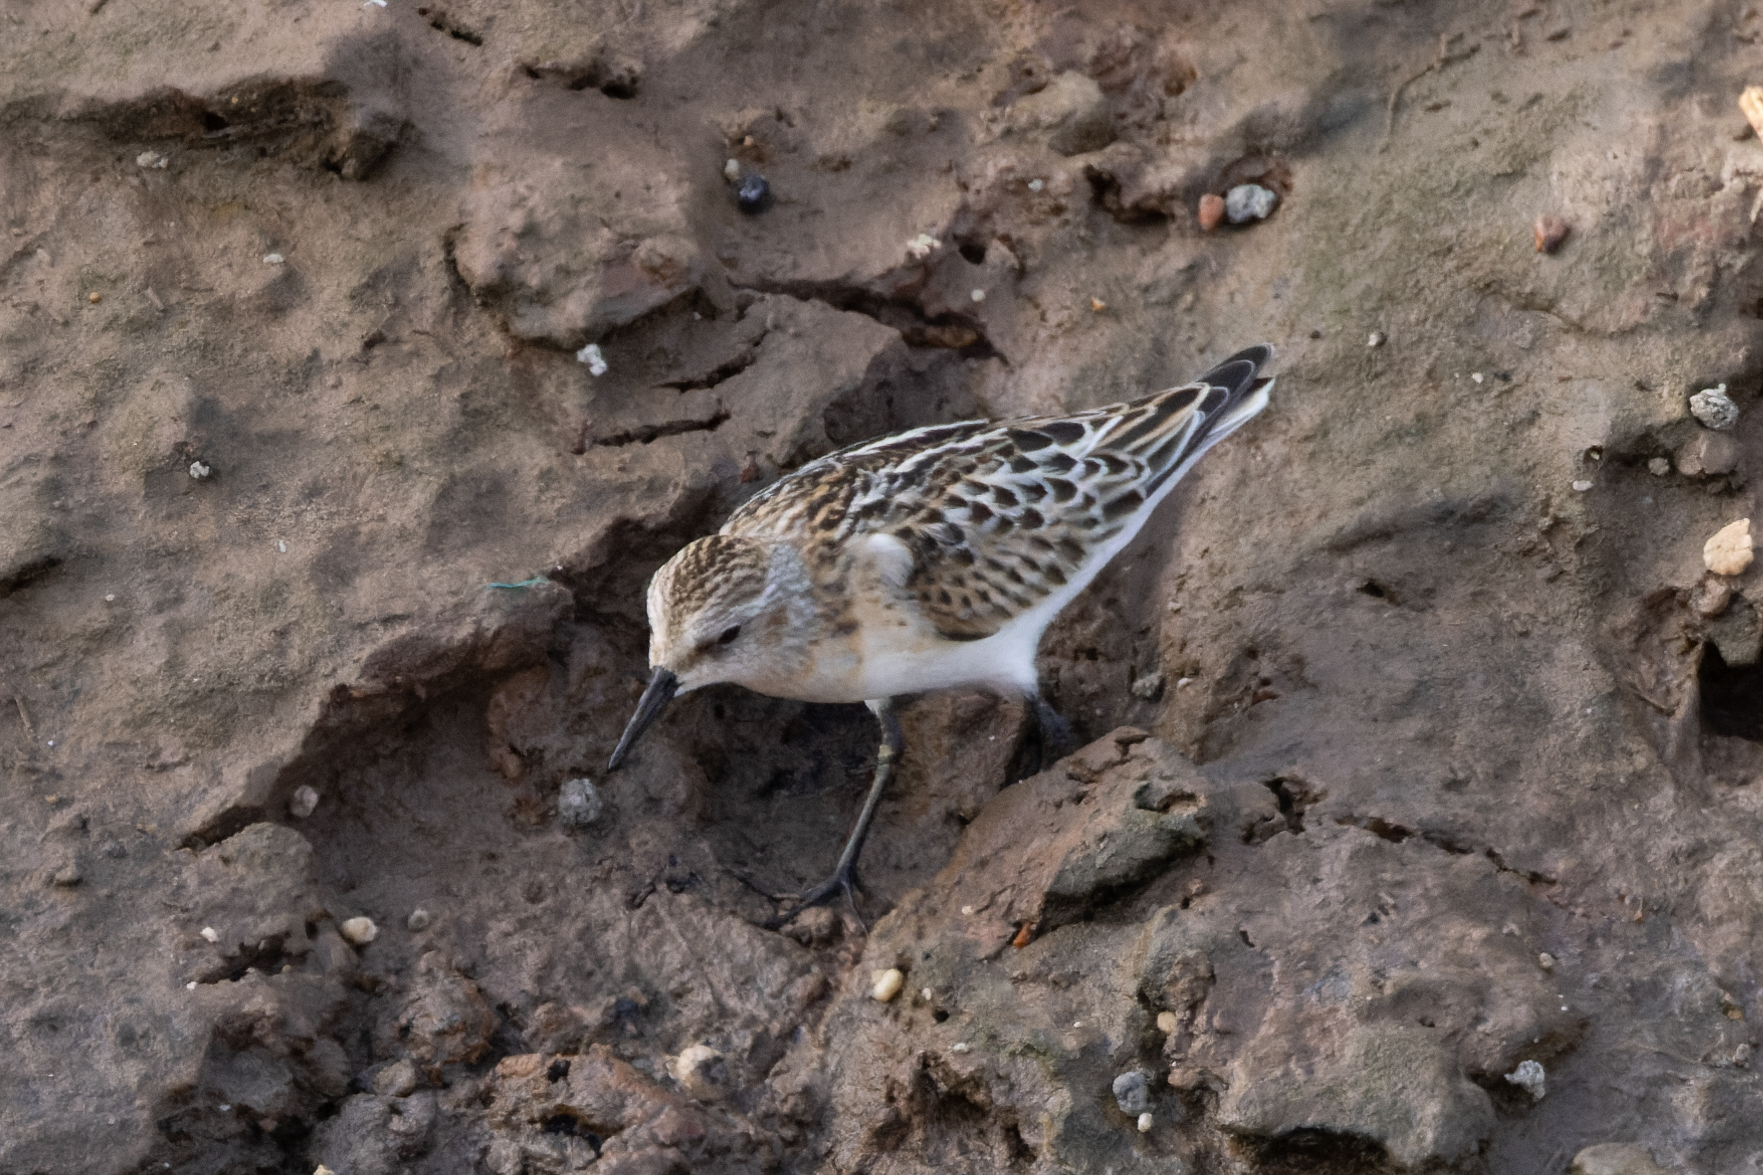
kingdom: Animalia
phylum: Chordata
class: Aves
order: Charadriiformes
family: Scolopacidae
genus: Calidris
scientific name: Calidris minuta
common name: Little stint
